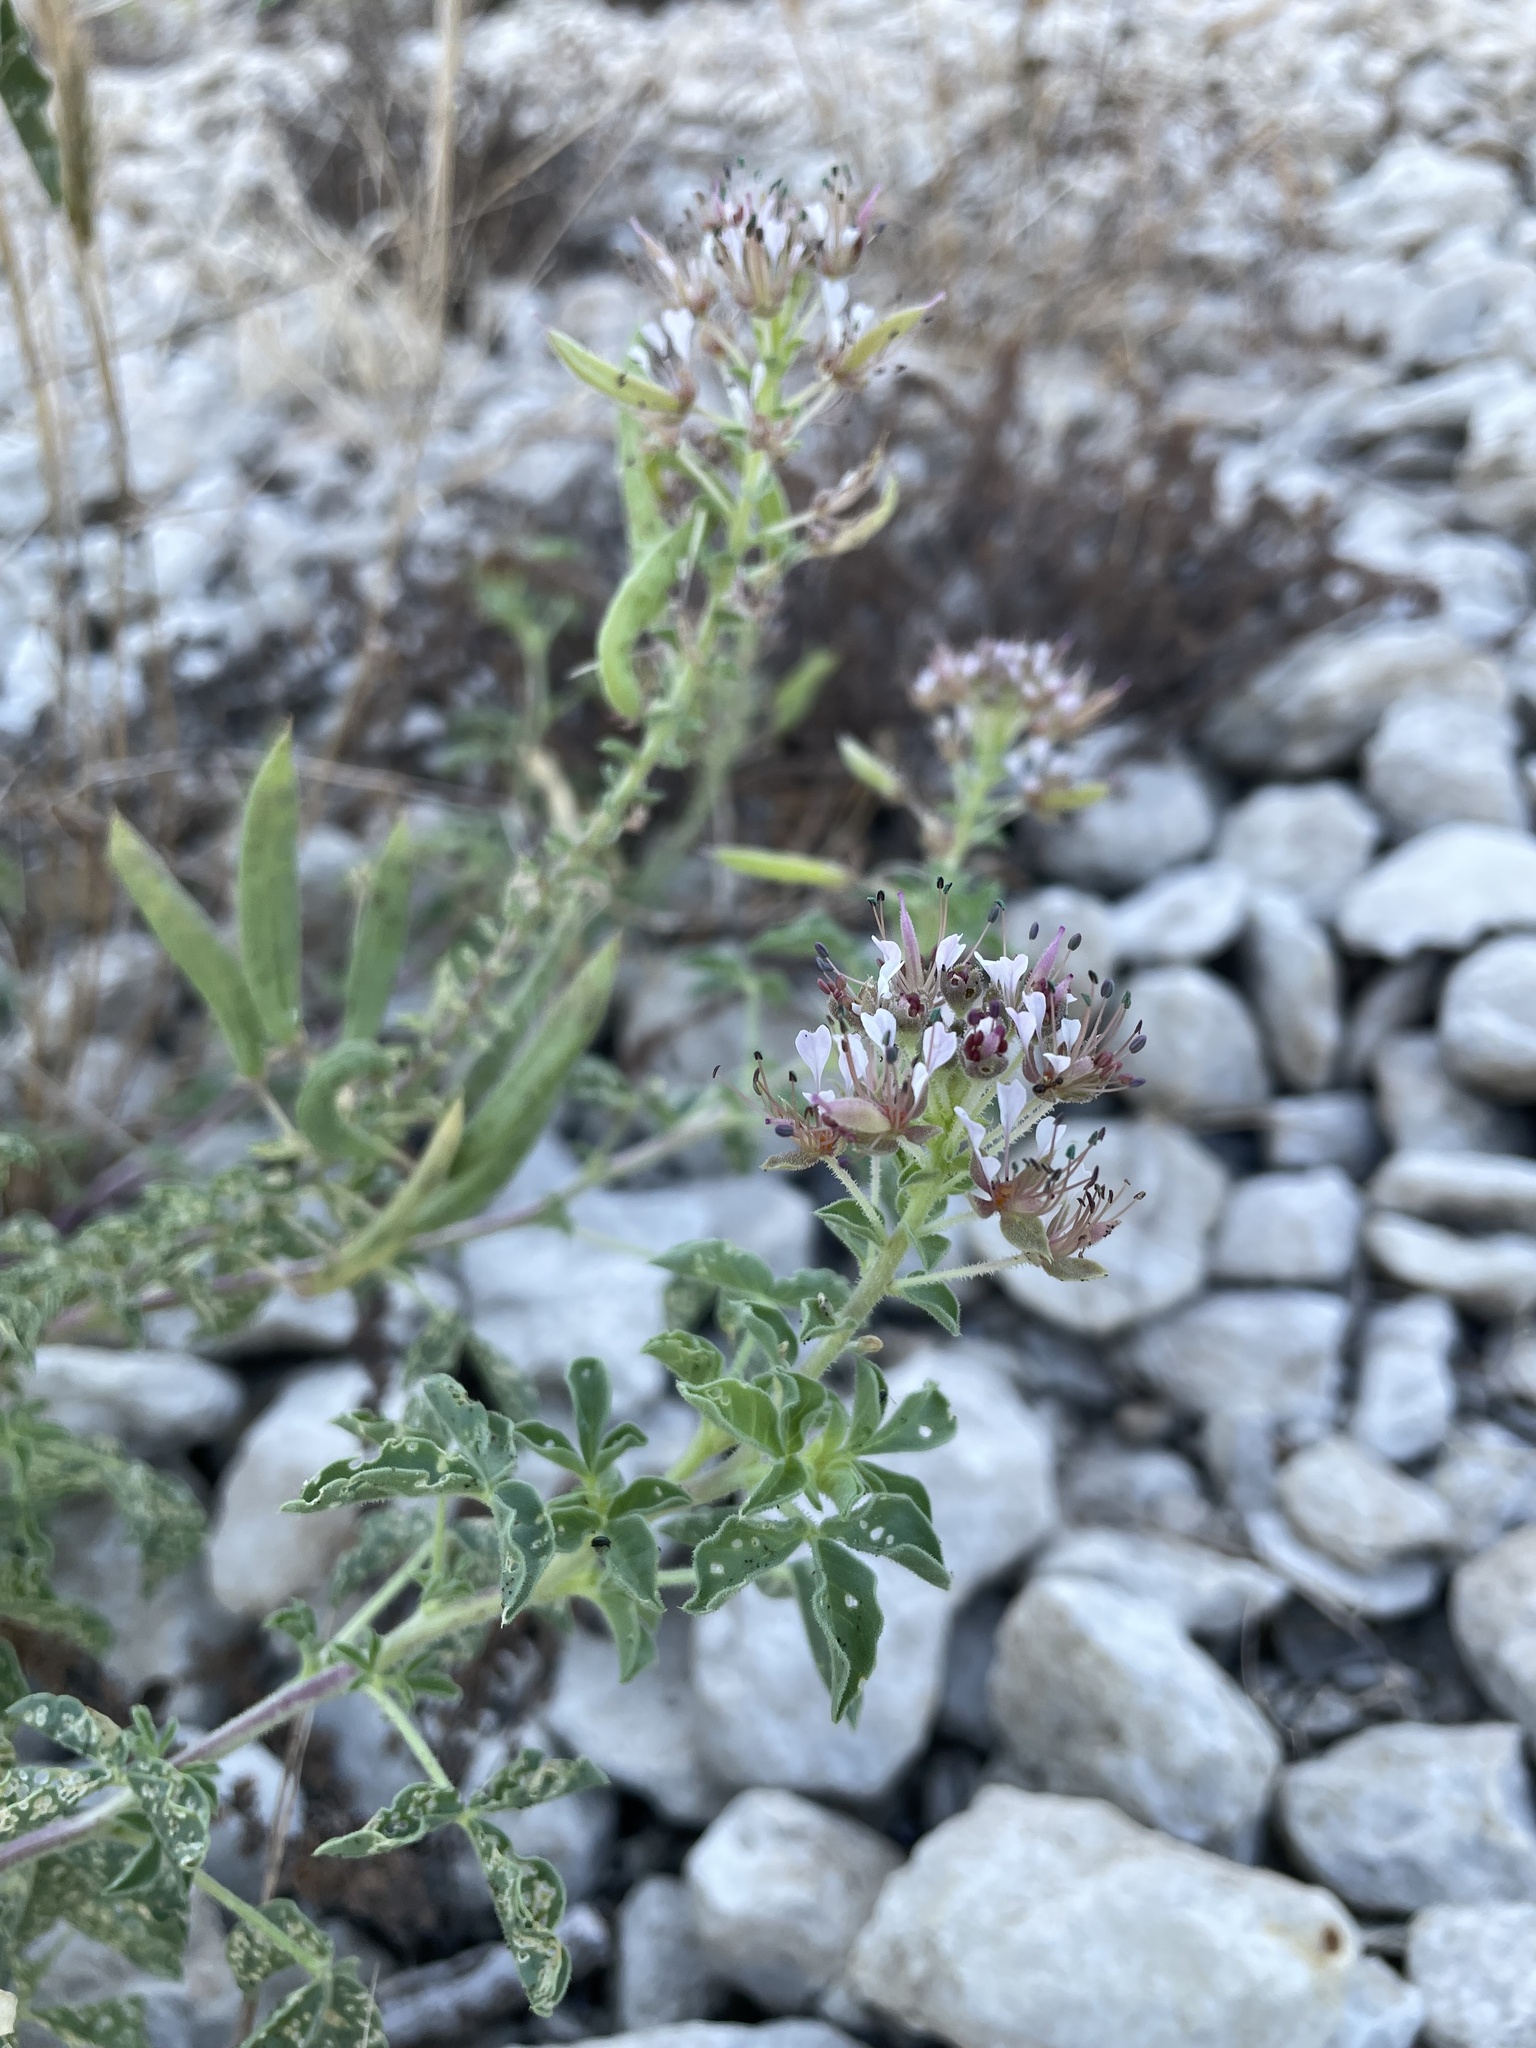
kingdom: Plantae
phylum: Tracheophyta
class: Magnoliopsida
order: Brassicales
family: Cleomaceae
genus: Polanisia
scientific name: Polanisia dodecandra
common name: Clammyweed
